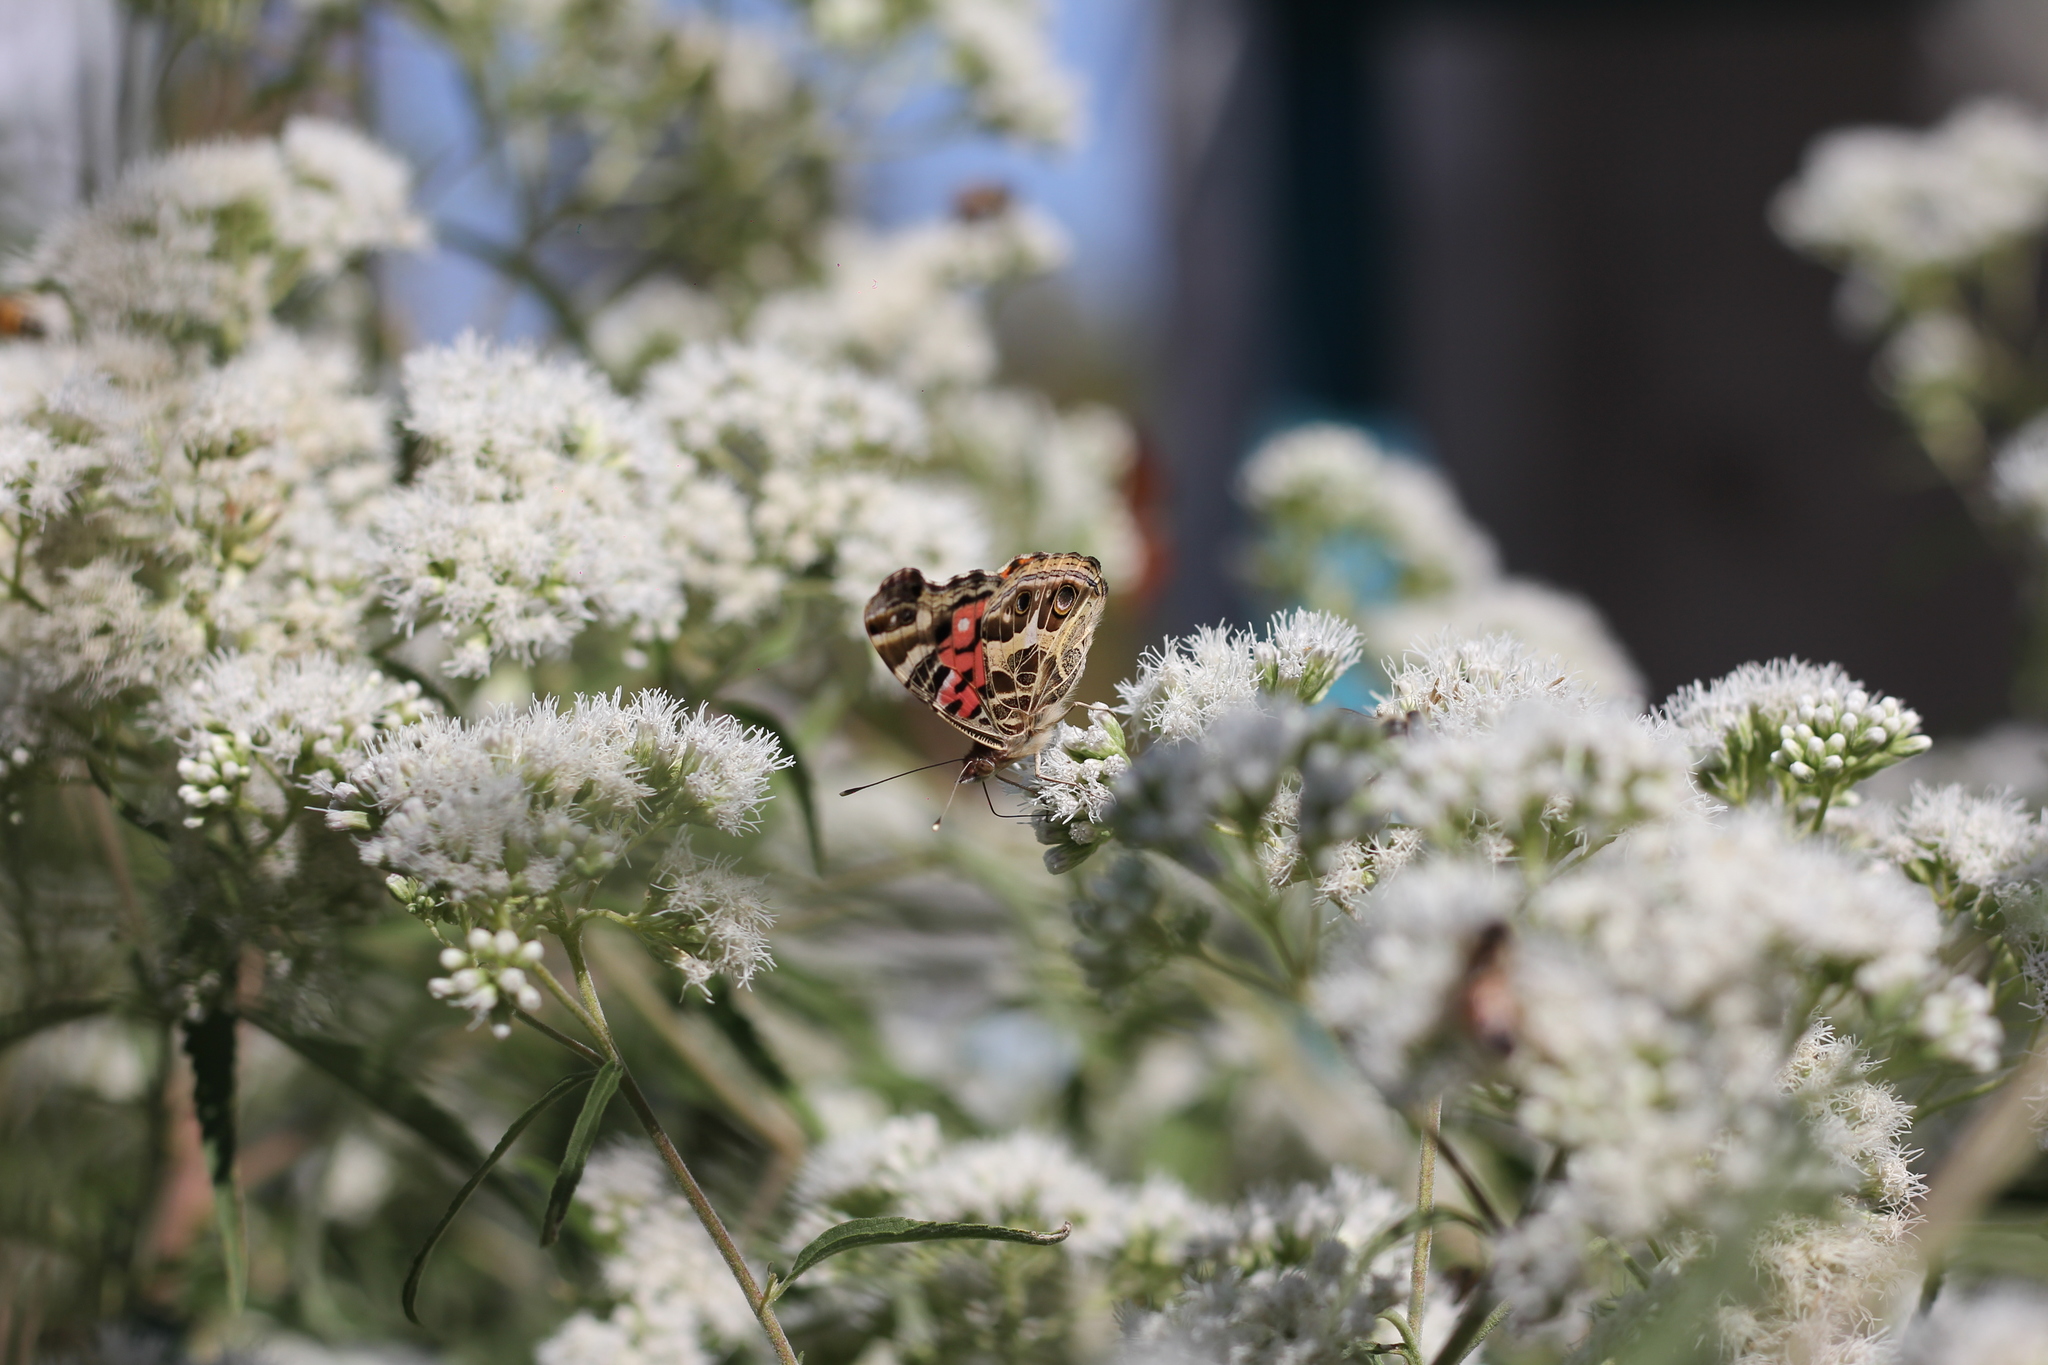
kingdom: Animalia
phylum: Arthropoda
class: Insecta
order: Lepidoptera
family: Nymphalidae
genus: Vanessa
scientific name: Vanessa braziliensis
